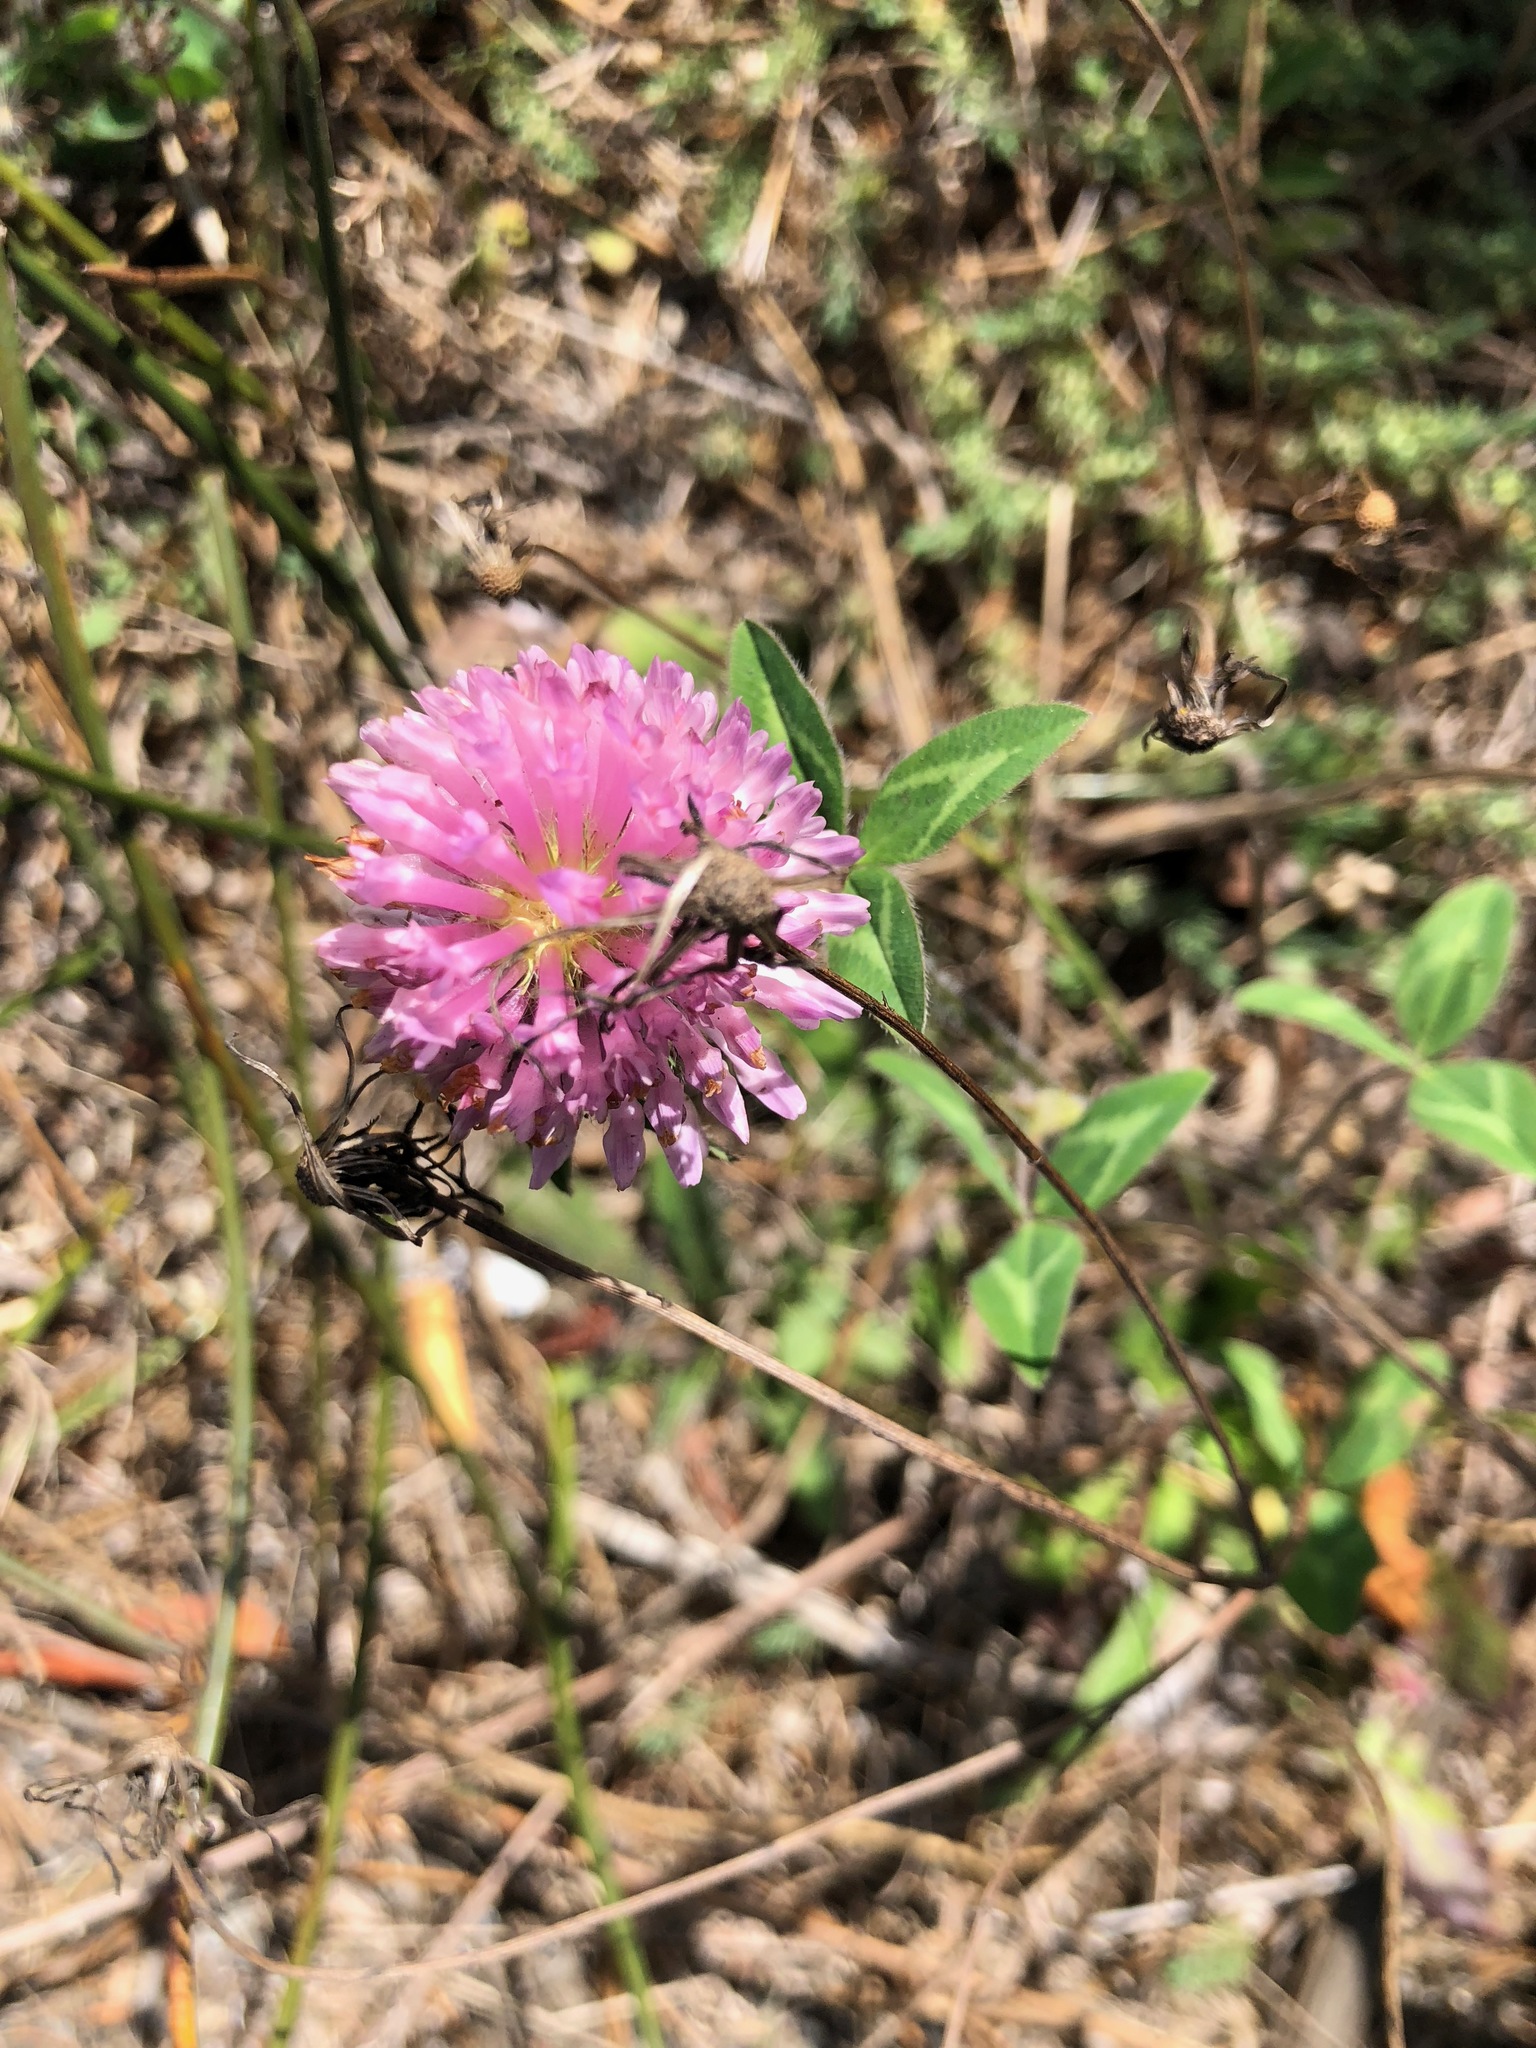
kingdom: Plantae
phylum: Tracheophyta
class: Magnoliopsida
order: Fabales
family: Fabaceae
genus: Trifolium
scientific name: Trifolium pratense
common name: Red clover
